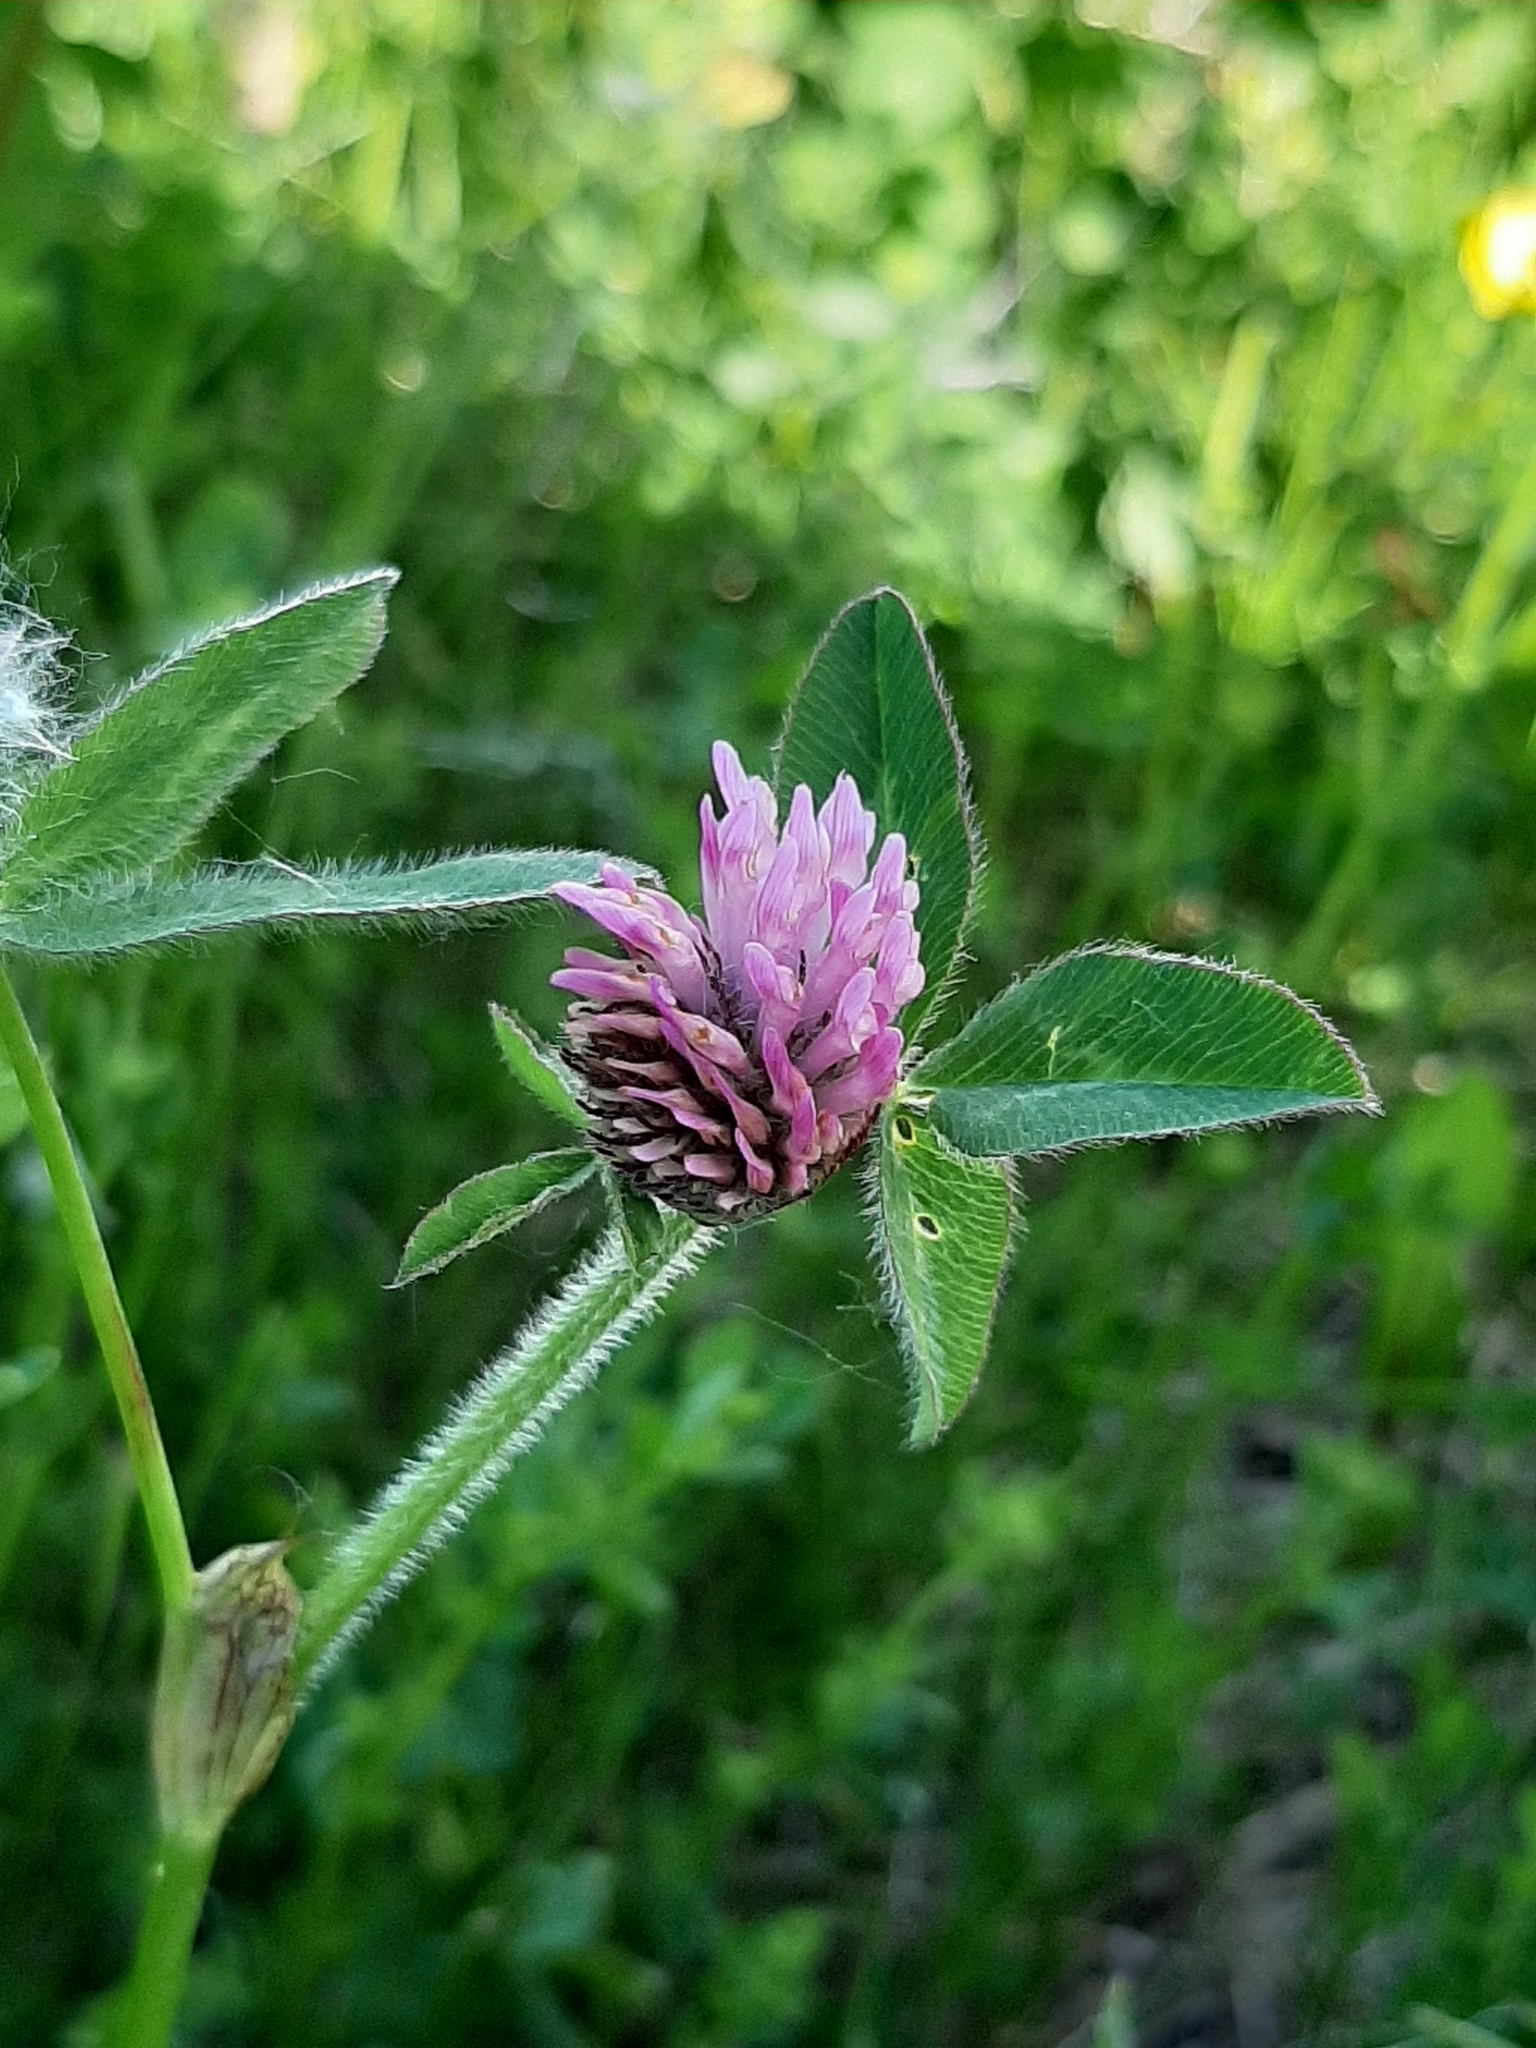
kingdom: Plantae
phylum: Tracheophyta
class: Magnoliopsida
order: Fabales
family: Fabaceae
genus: Trifolium
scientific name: Trifolium pratense
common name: Red clover
